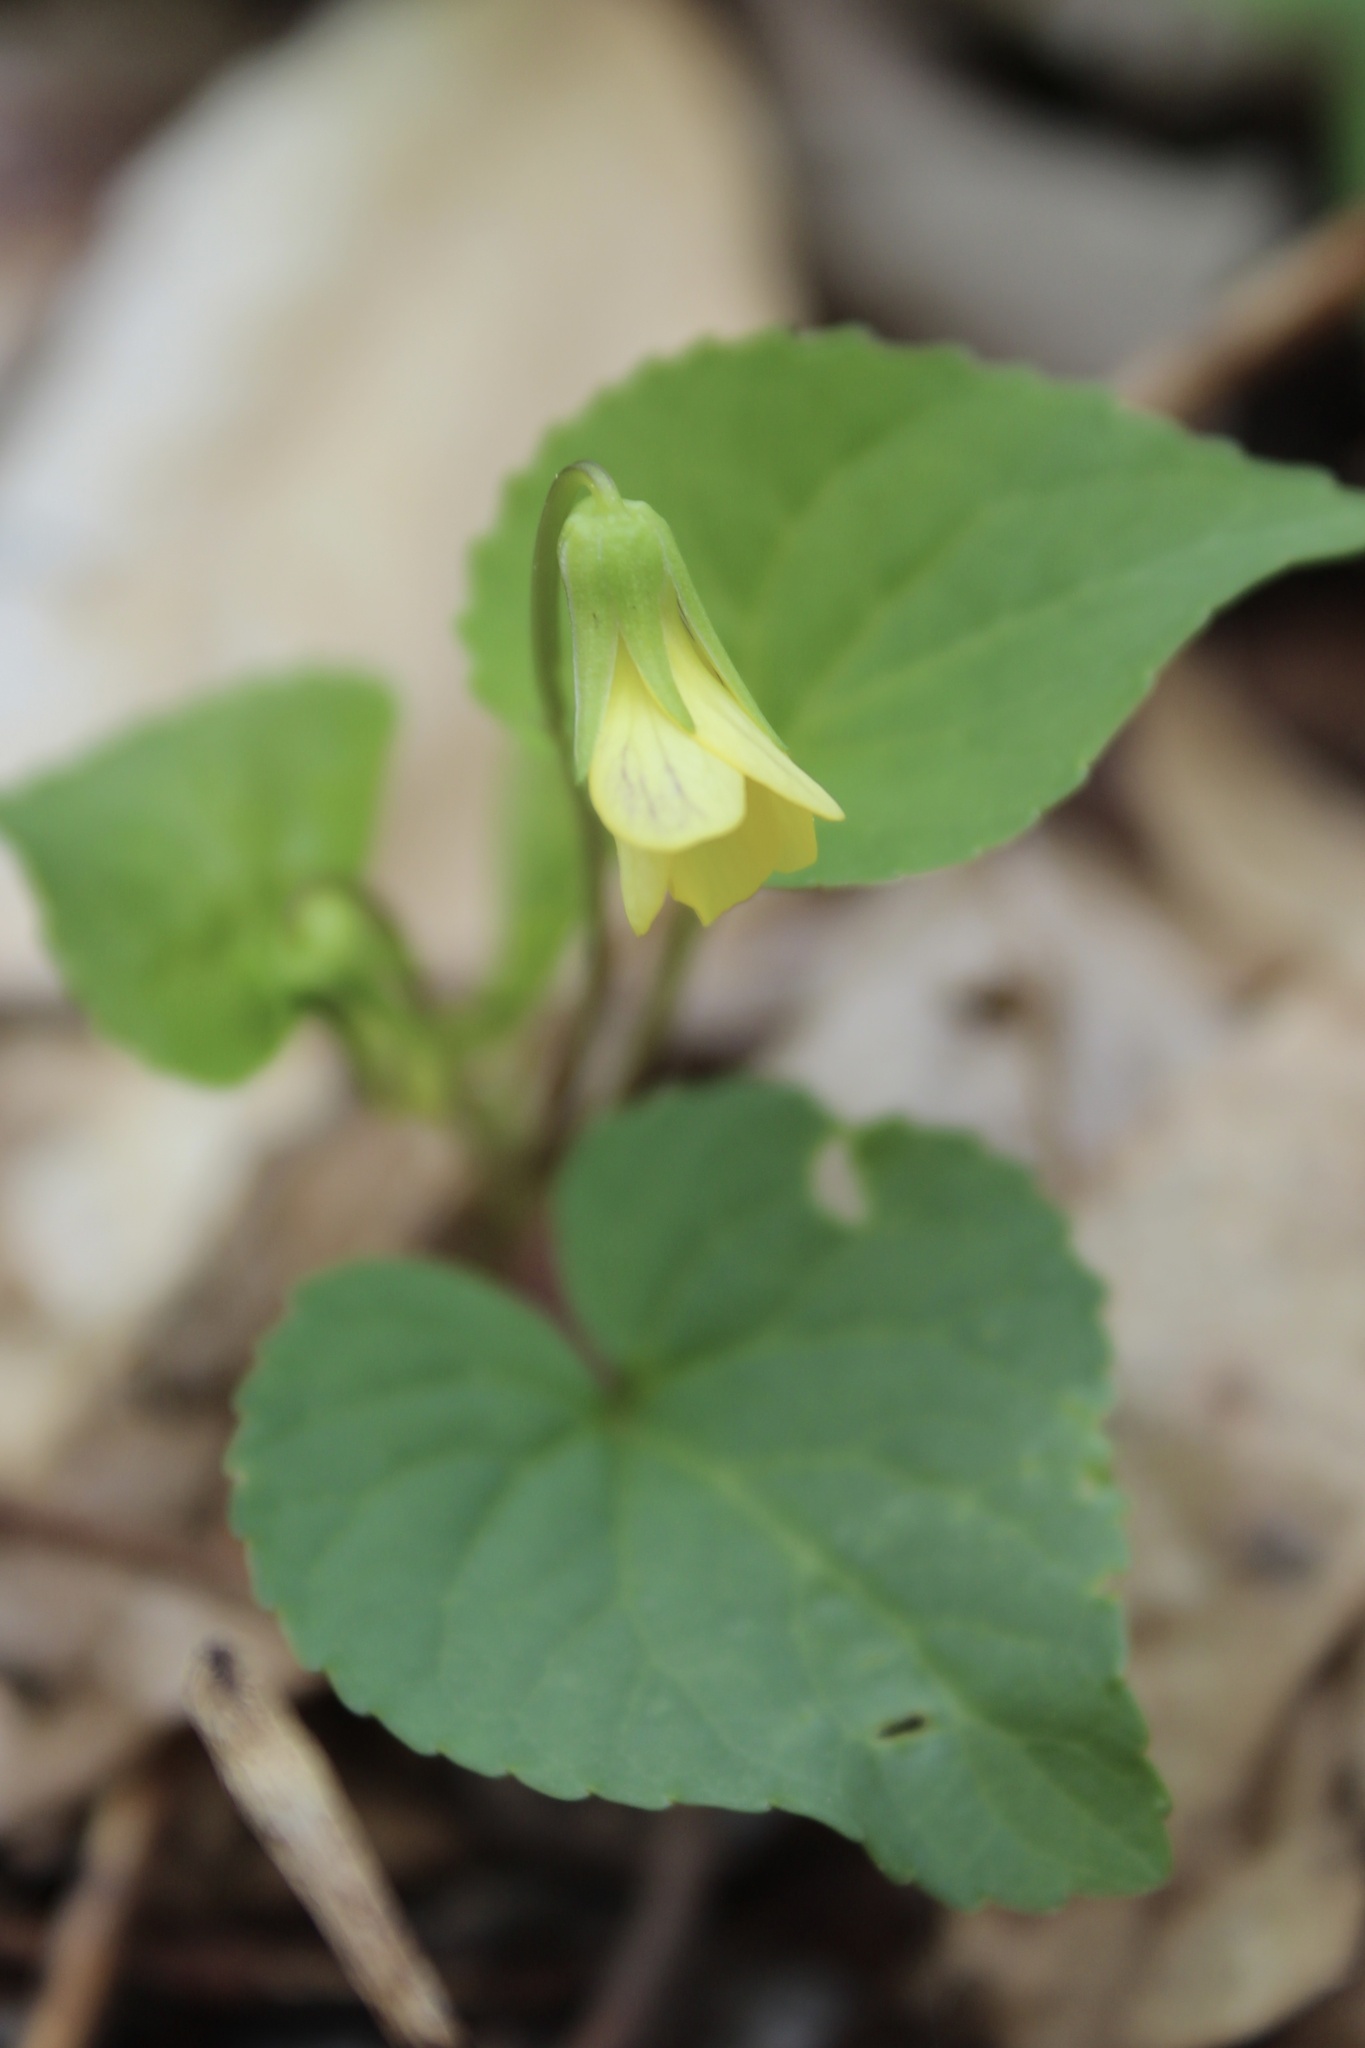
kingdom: Plantae
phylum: Tracheophyta
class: Magnoliopsida
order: Malpighiales
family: Violaceae
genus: Viola
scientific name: Viola eriocarpa
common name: Smooth yellow violet
